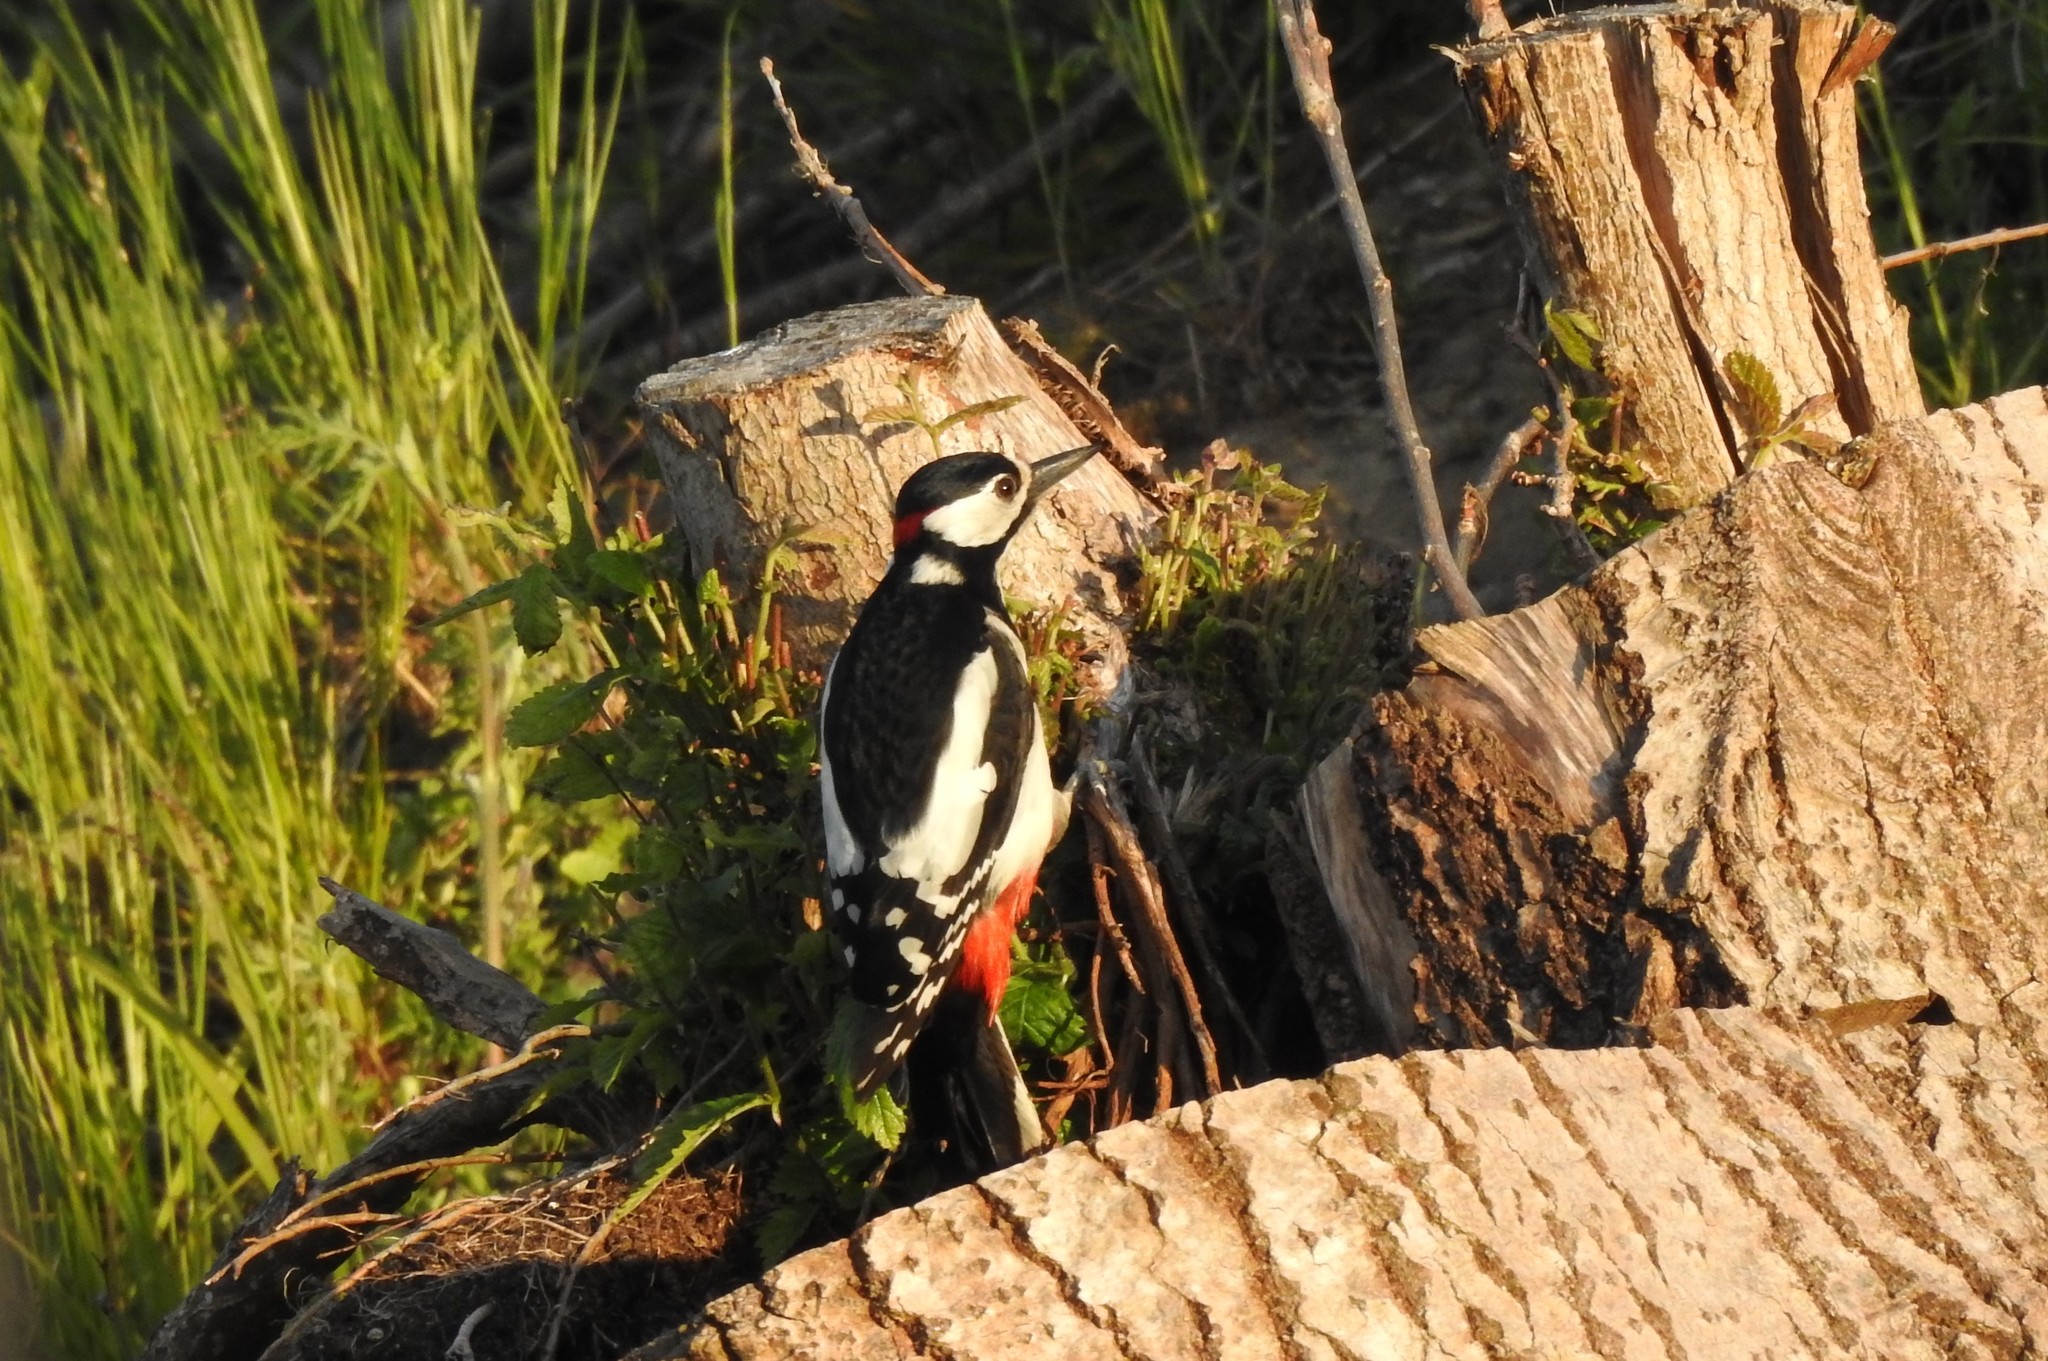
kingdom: Animalia
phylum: Chordata
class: Aves
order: Piciformes
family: Picidae
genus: Dendrocopos
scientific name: Dendrocopos major
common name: Great spotted woodpecker
